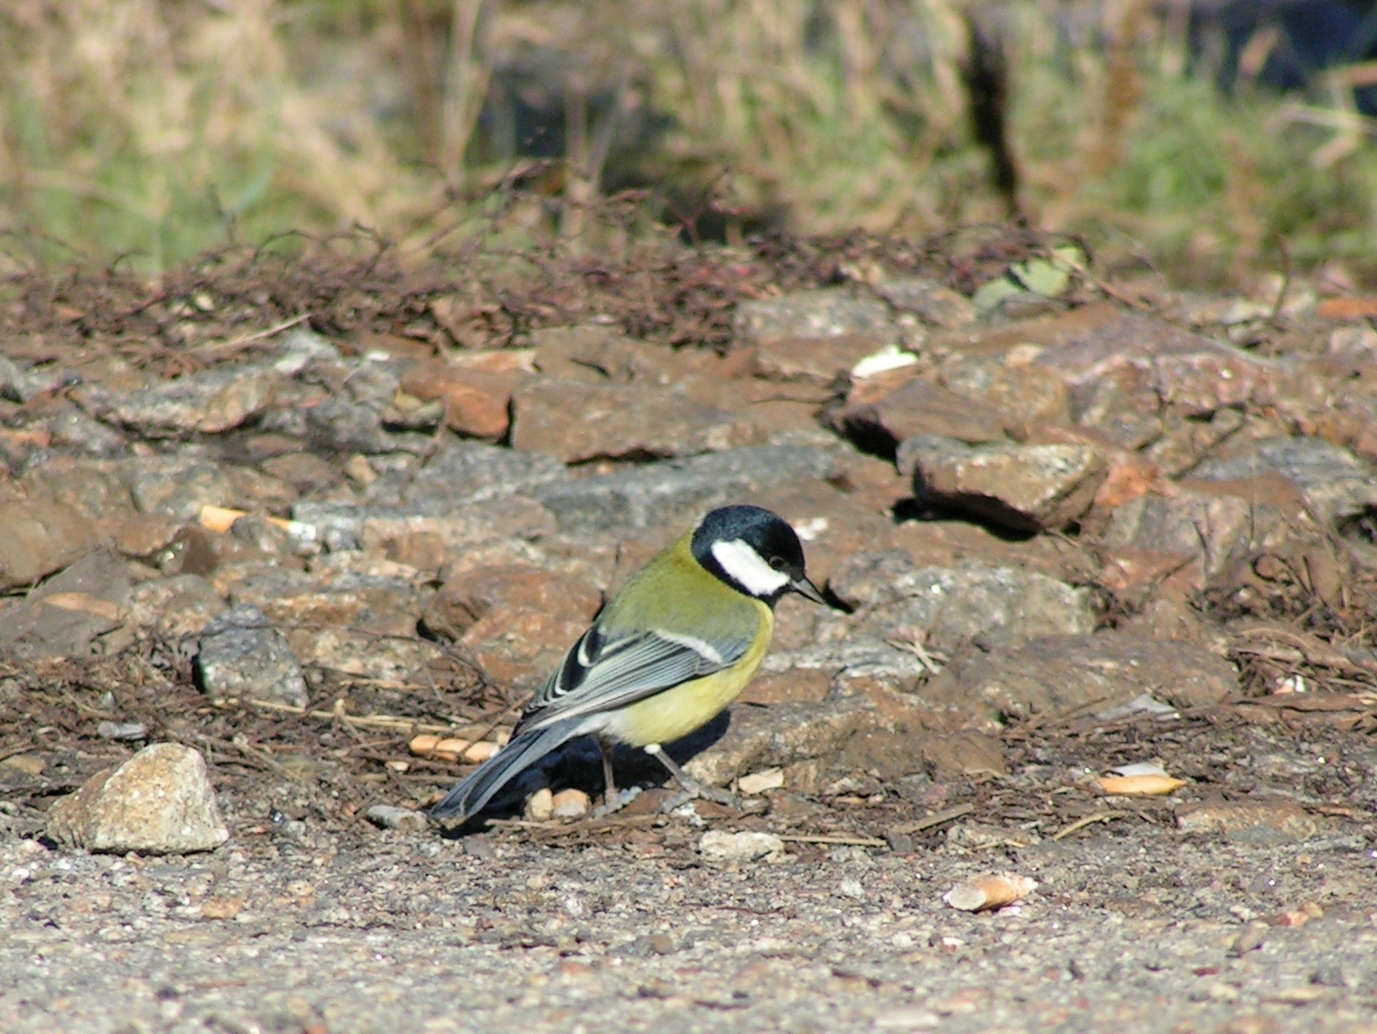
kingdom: Animalia
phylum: Chordata
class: Aves
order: Passeriformes
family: Paridae
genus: Parus
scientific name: Parus major
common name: Great tit
